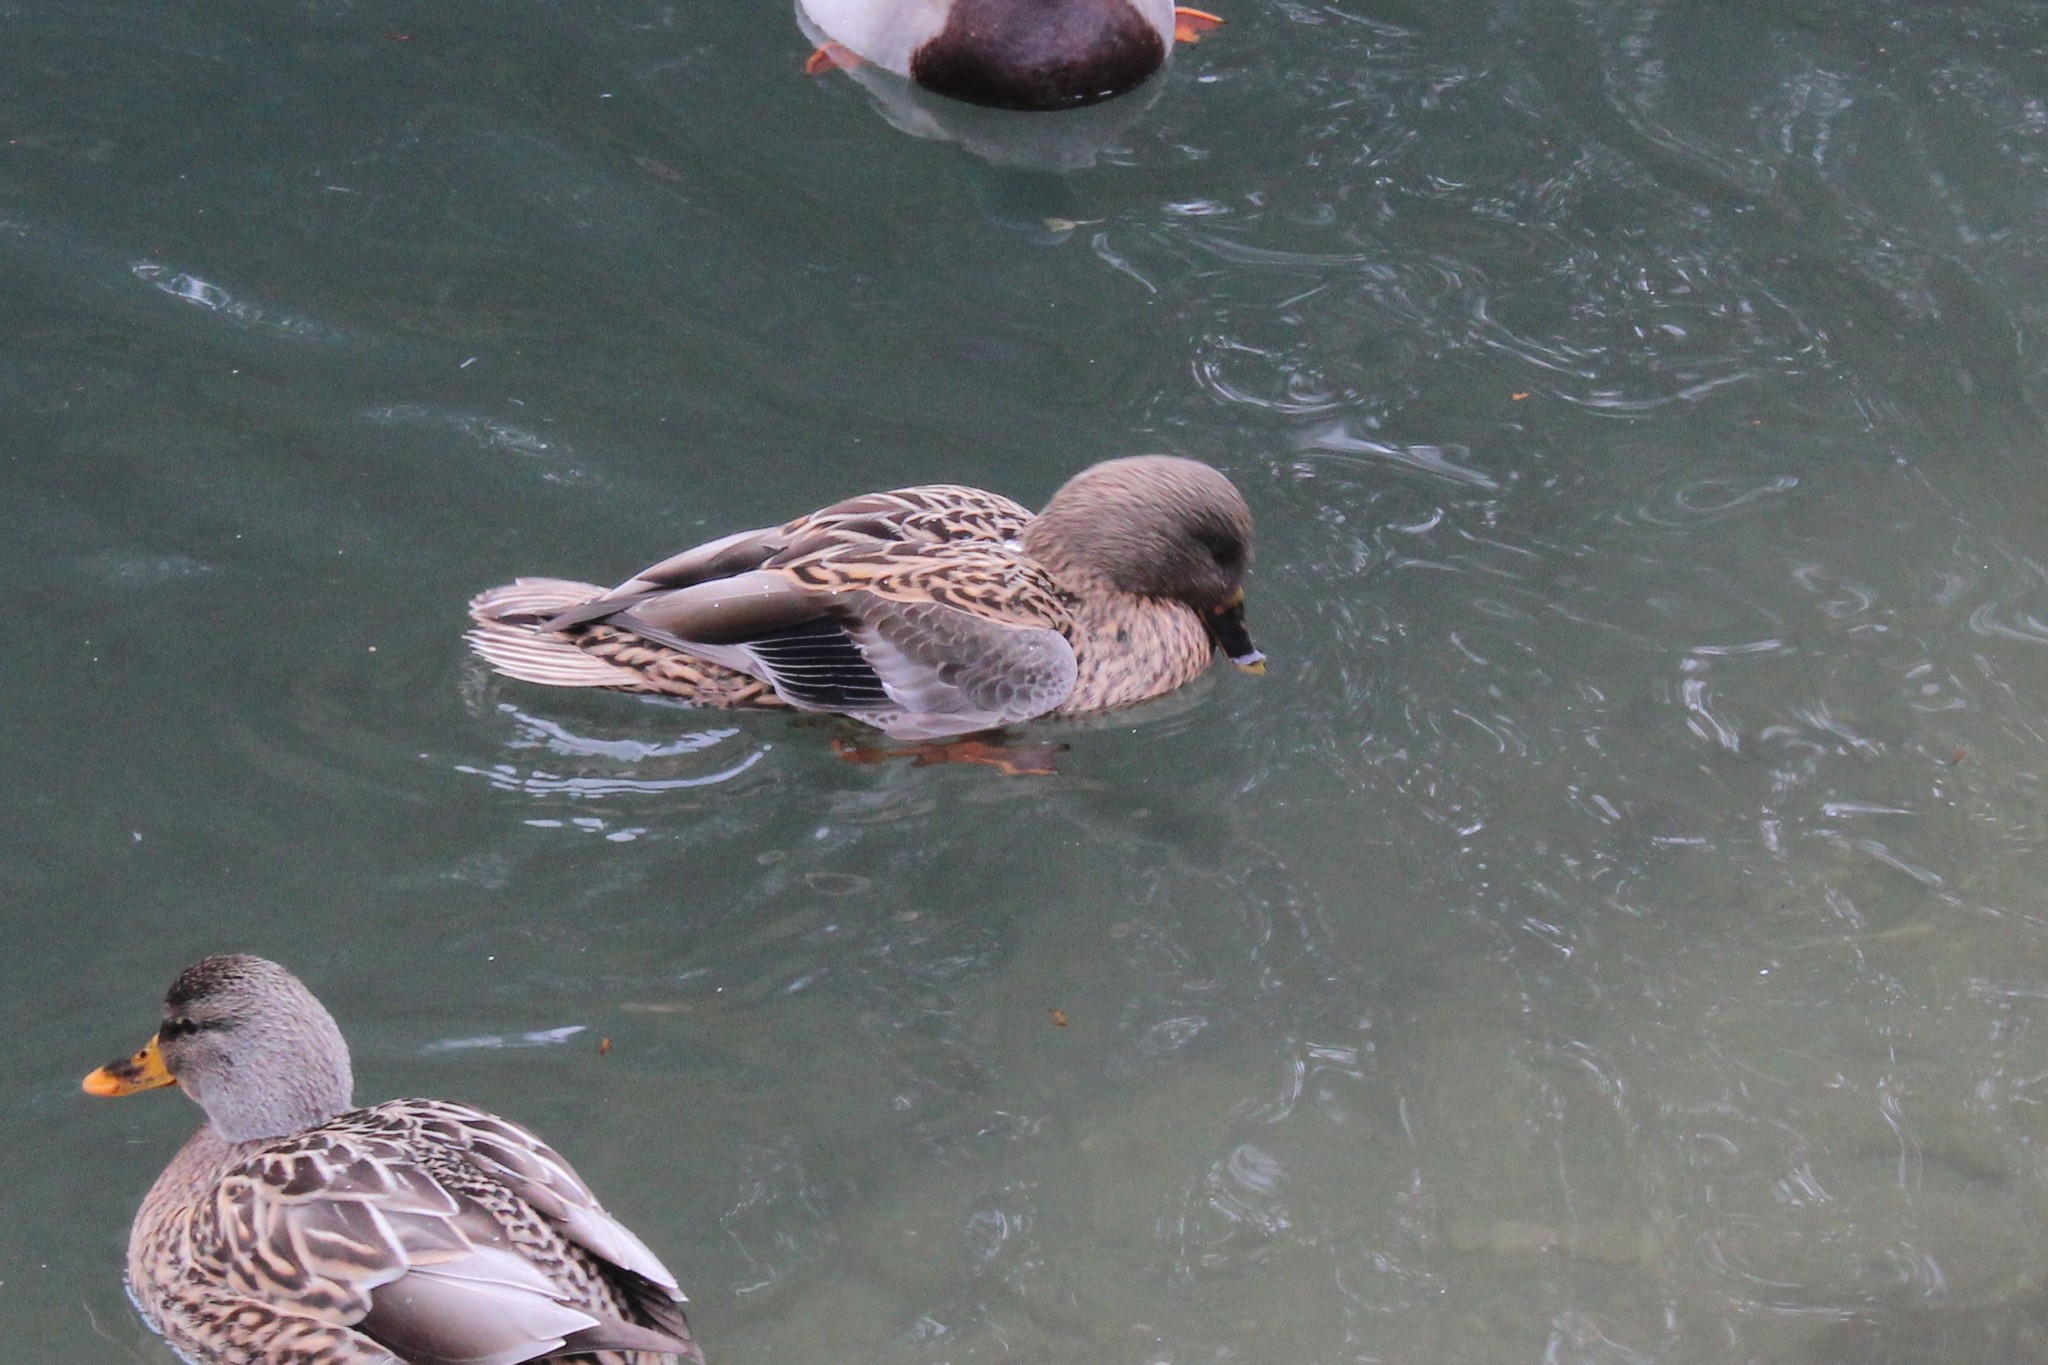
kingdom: Animalia
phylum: Chordata
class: Aves
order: Anseriformes
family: Anatidae
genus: Anas
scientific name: Anas platyrhynchos
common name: Mallard
